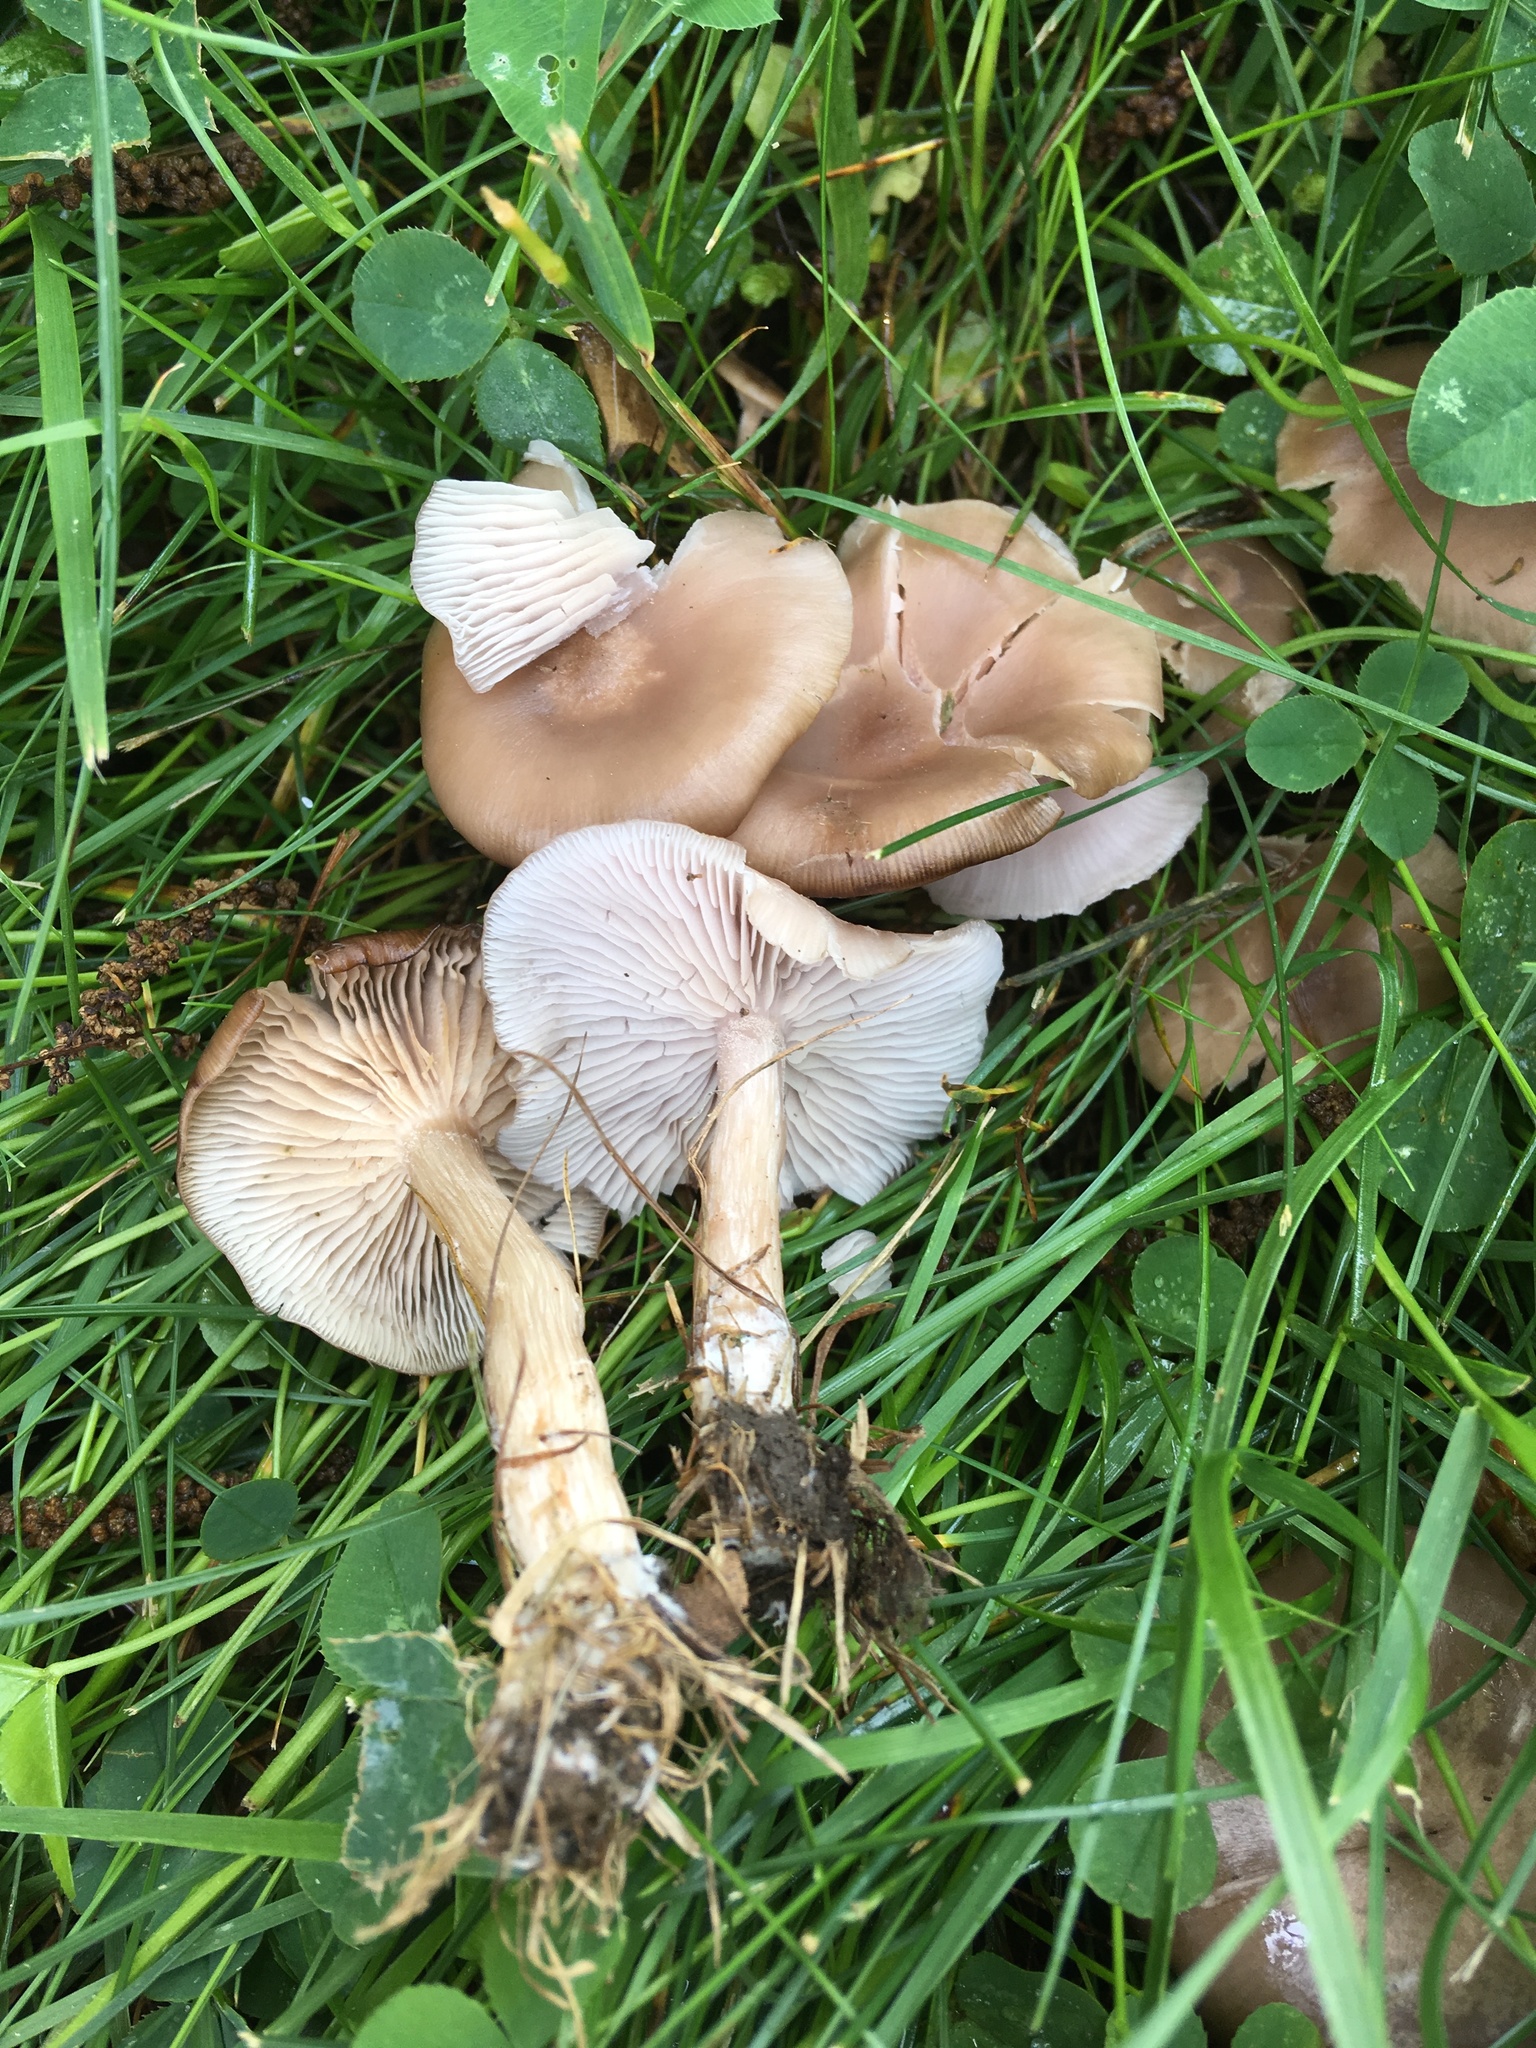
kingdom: Fungi
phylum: Basidiomycota
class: Agaricomycetes
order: Agaricales
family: Tricholomataceae
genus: Collybia
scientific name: Collybia
